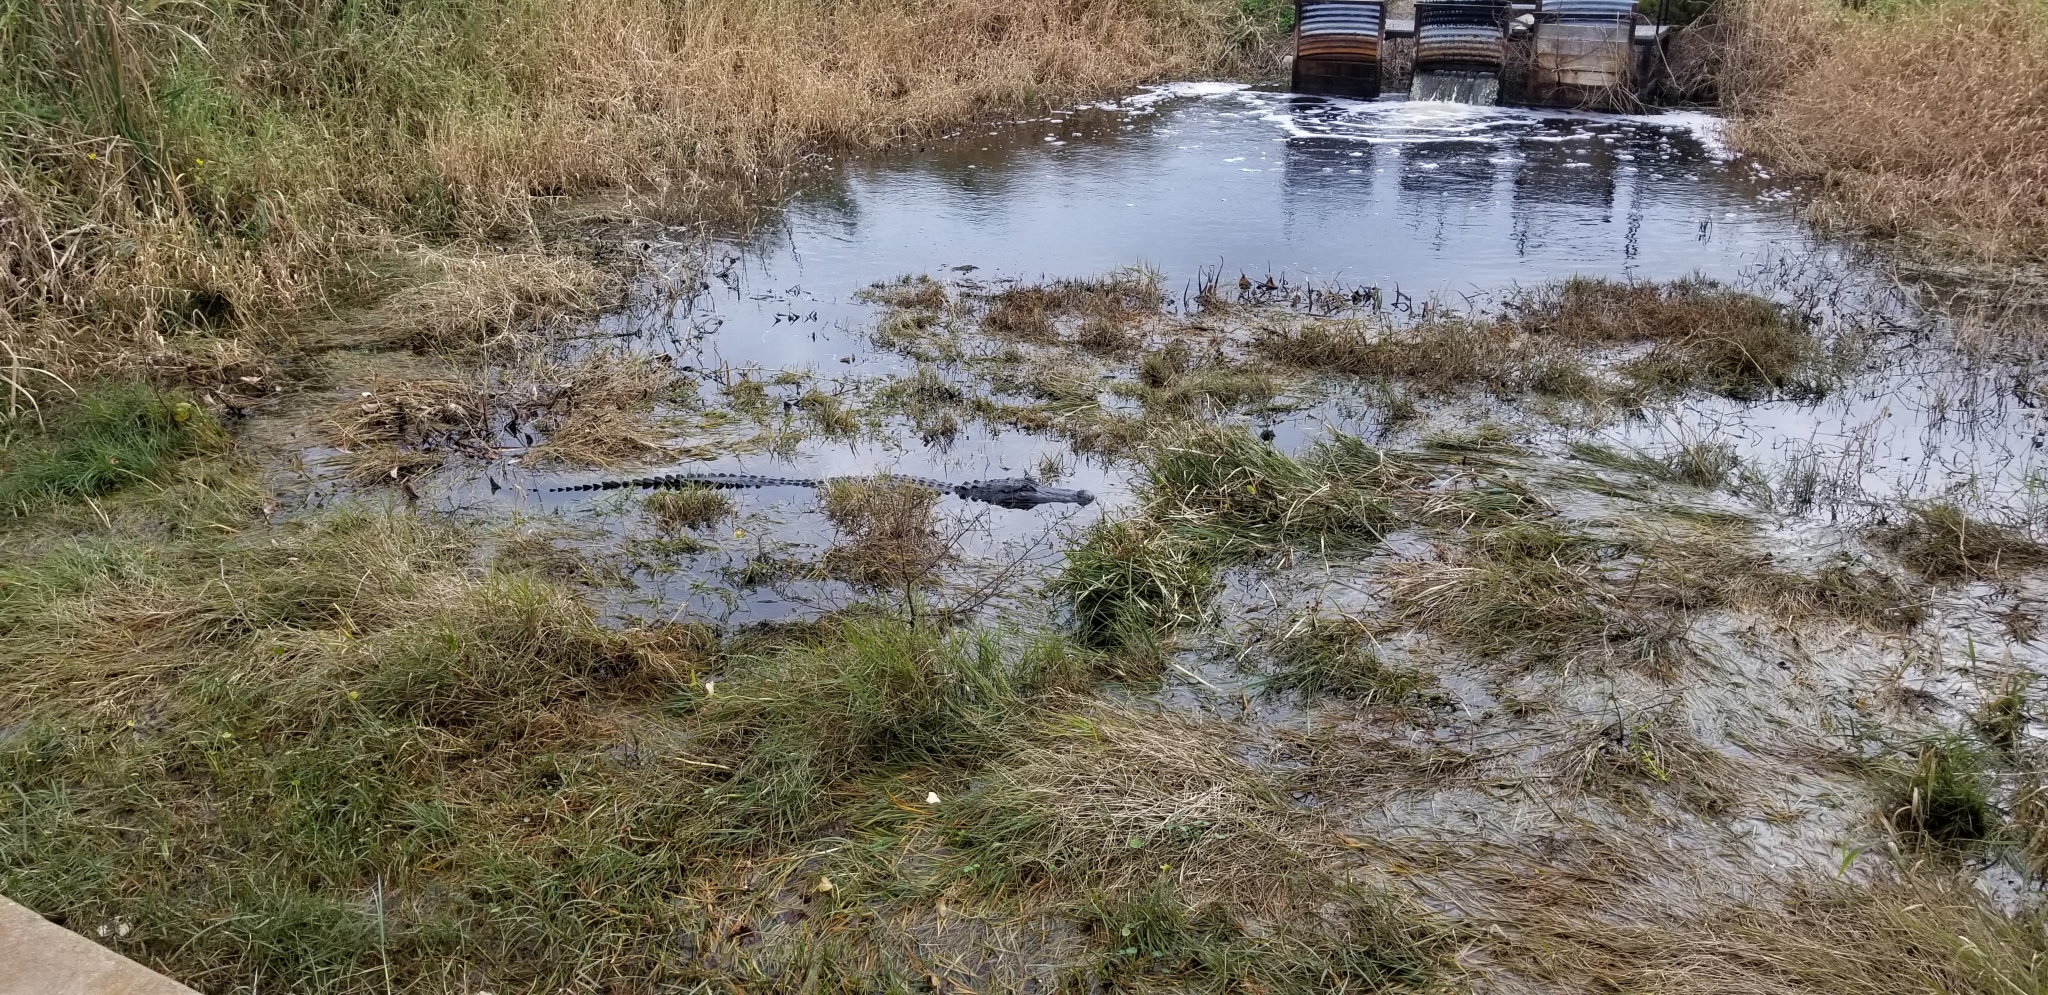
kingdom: Animalia
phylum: Chordata
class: Crocodylia
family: Alligatoridae
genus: Alligator
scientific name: Alligator mississippiensis
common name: American alligator
